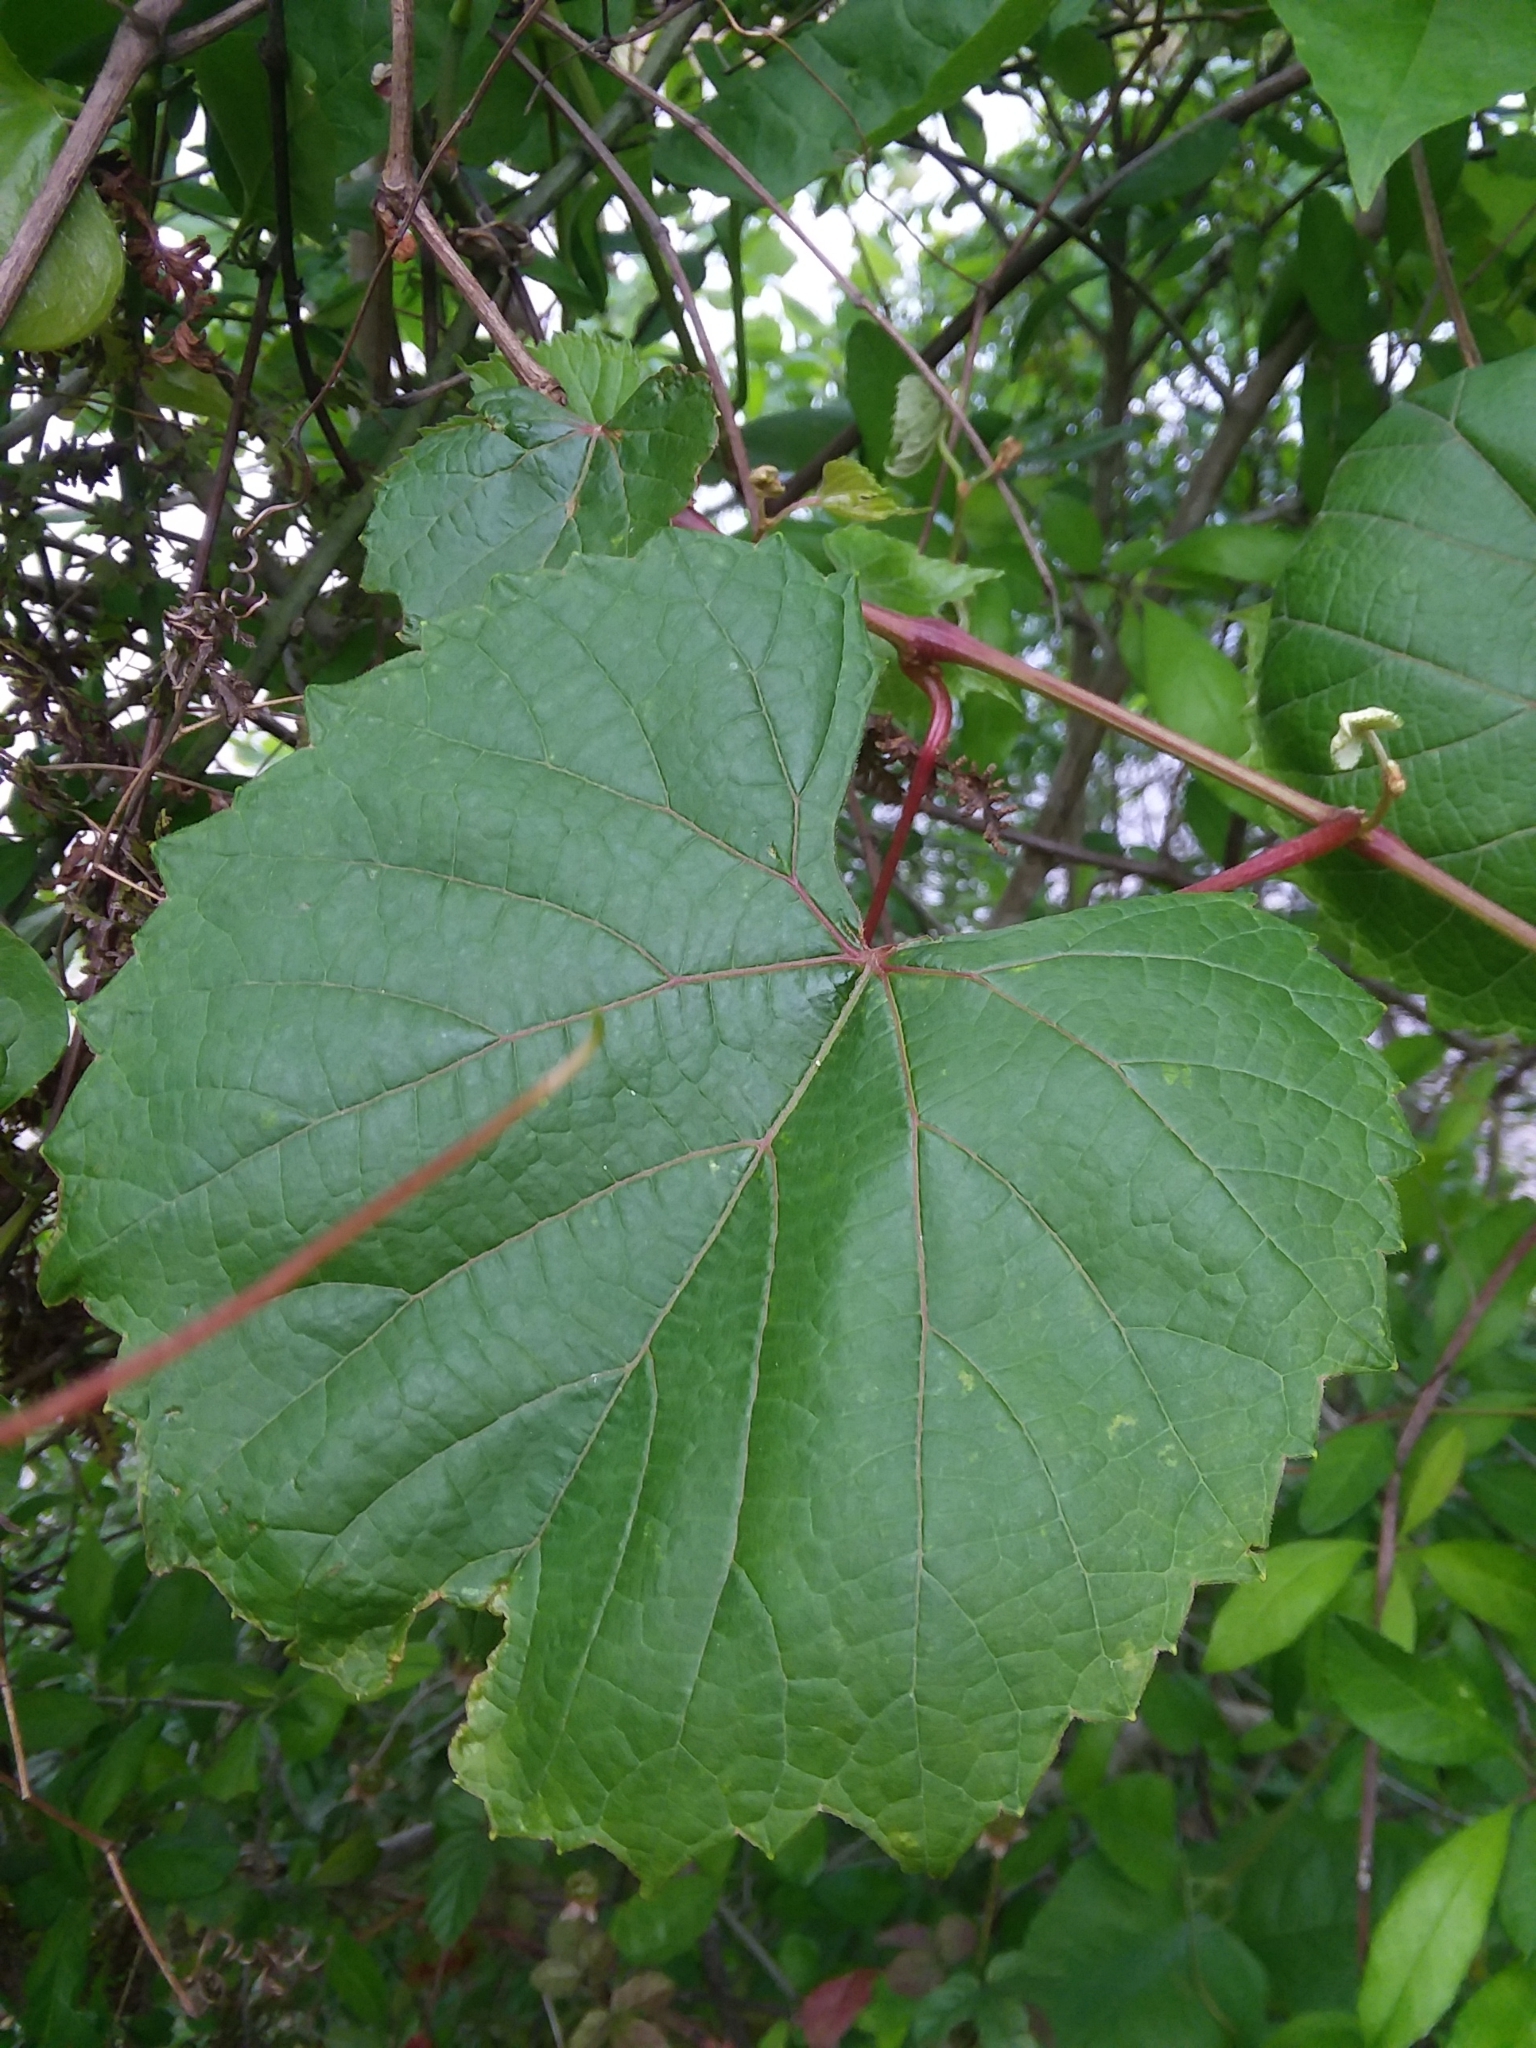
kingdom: Plantae
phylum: Tracheophyta
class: Magnoliopsida
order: Vitales
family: Vitaceae
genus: Vitis
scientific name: Vitis cinerea
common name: Ashy grape
